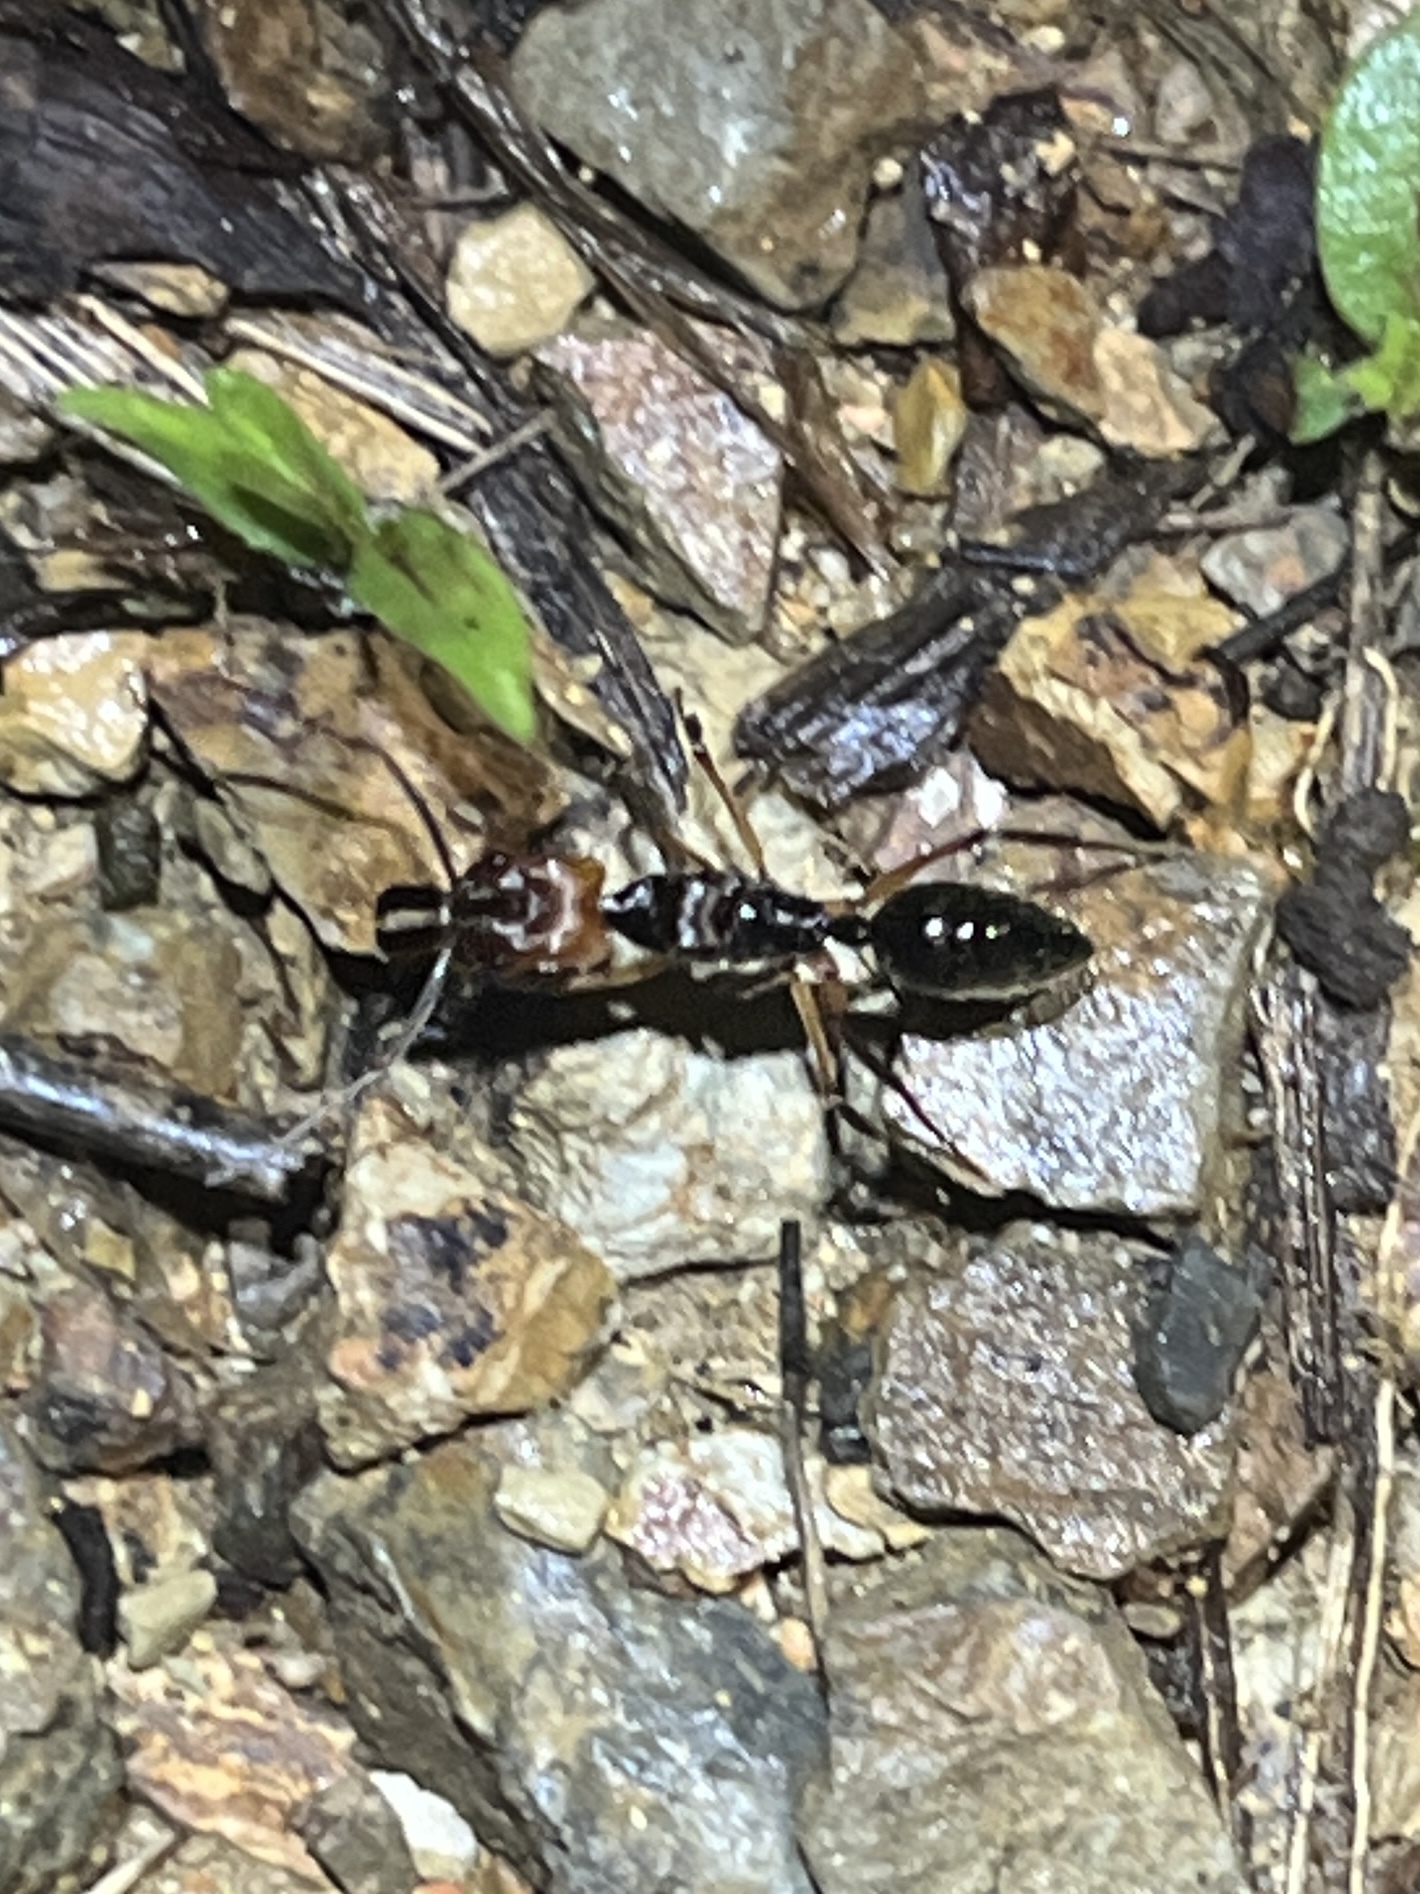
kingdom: Animalia
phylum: Arthropoda
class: Insecta
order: Hymenoptera
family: Formicidae
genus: Odontomachus
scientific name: Odontomachus erythrocephalus
